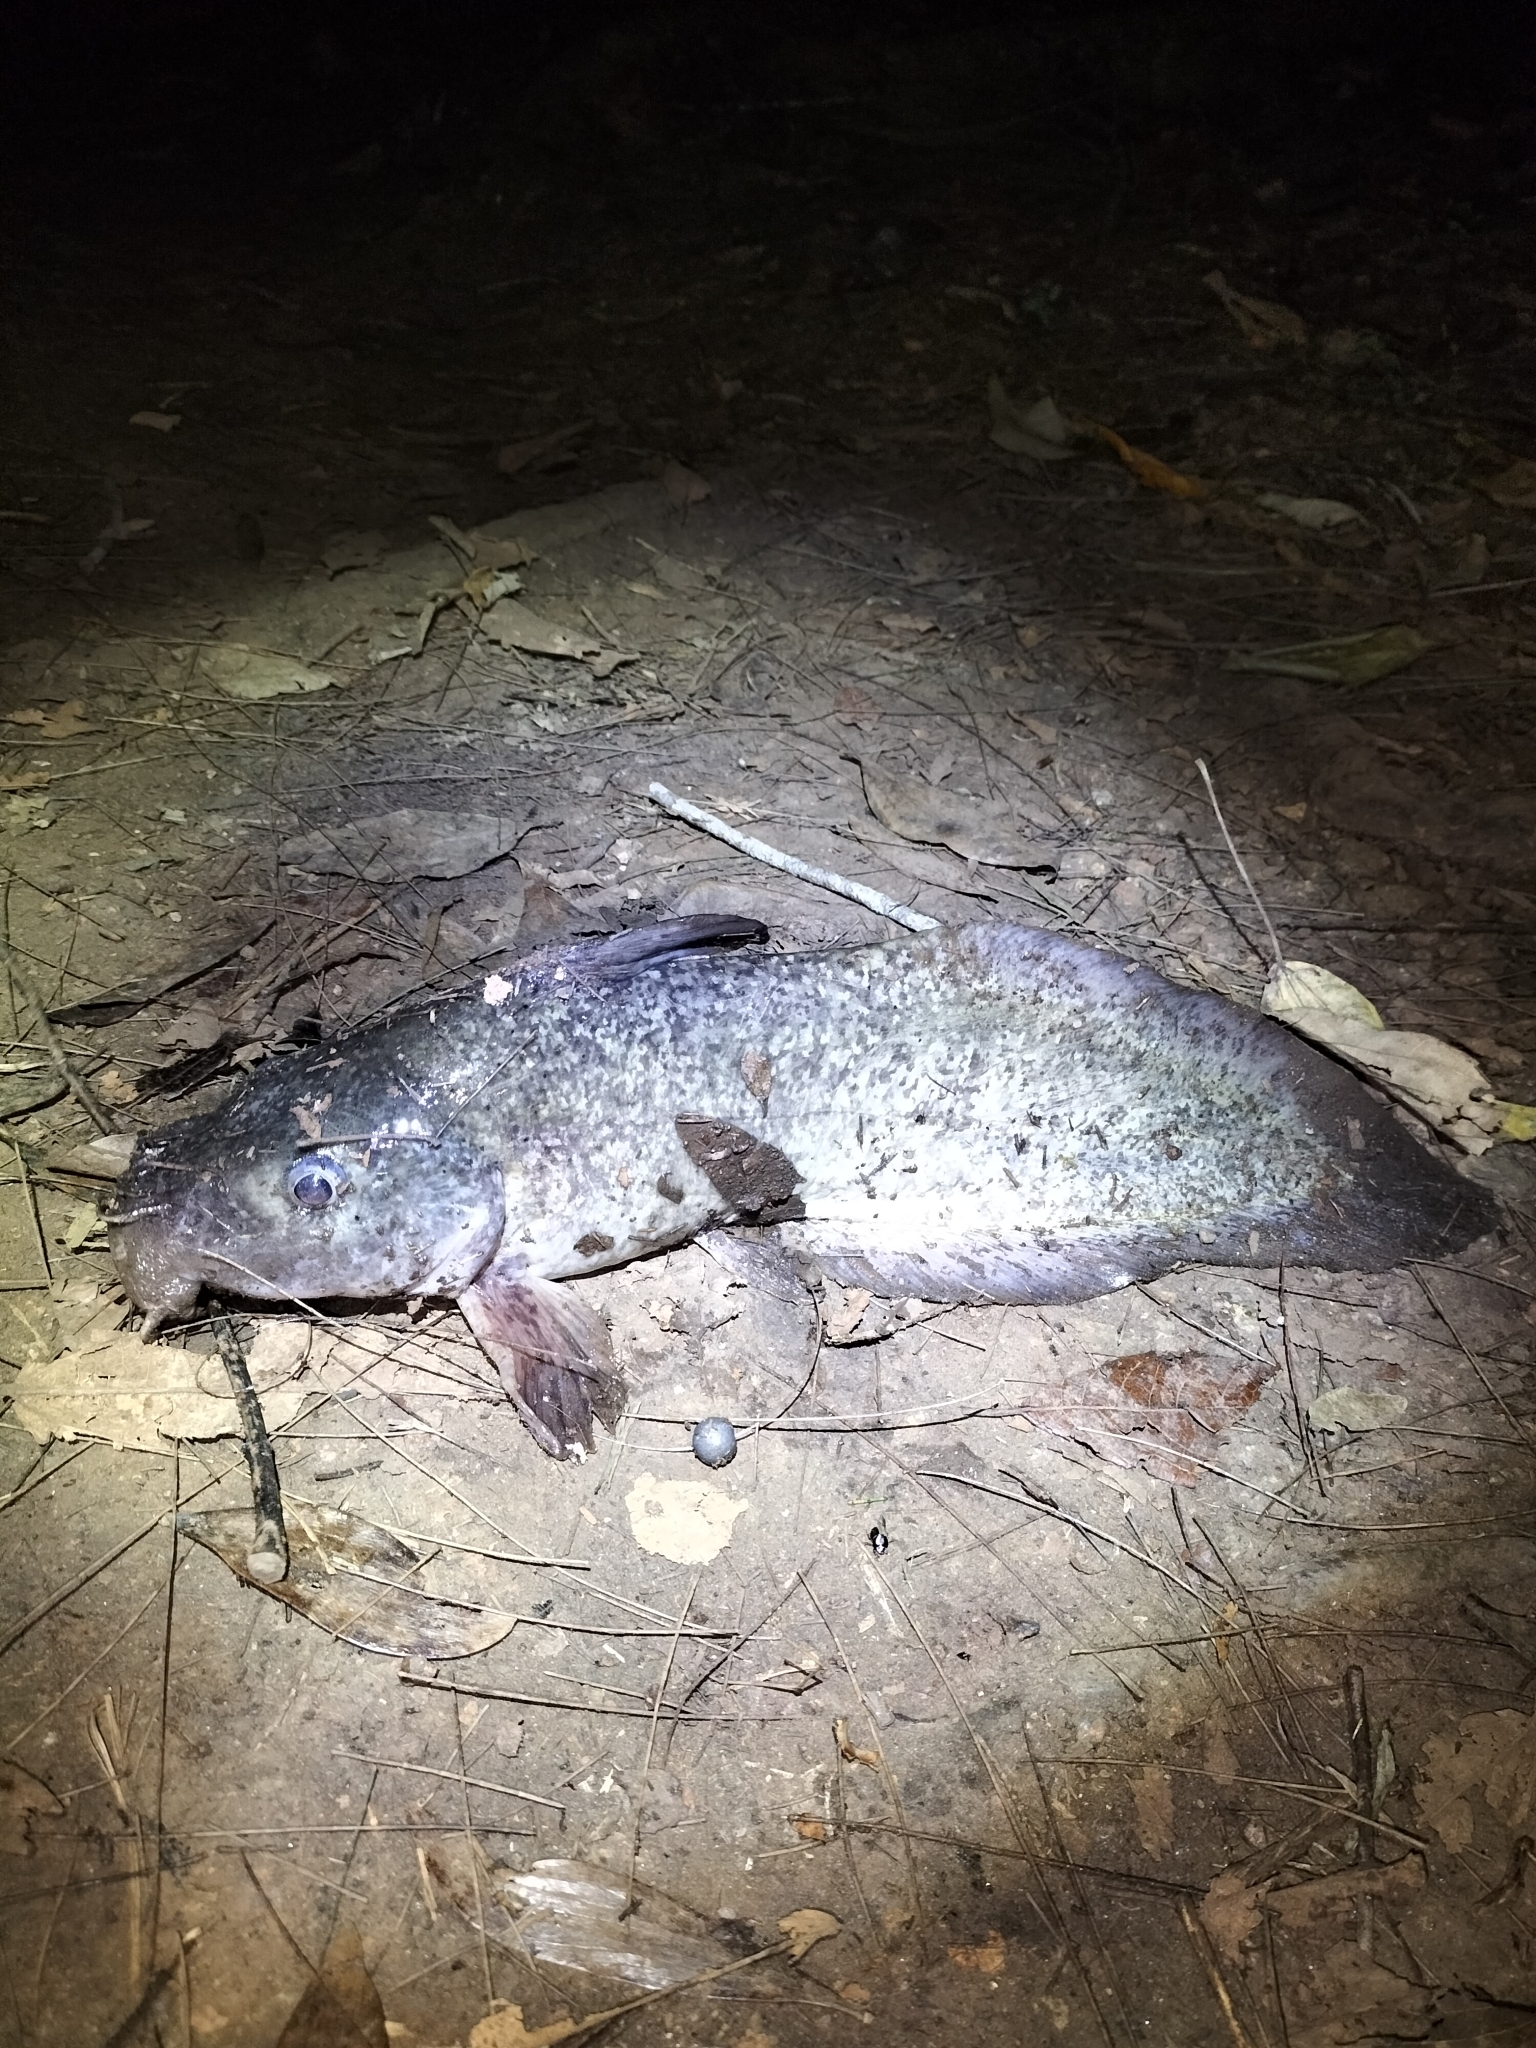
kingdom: Animalia
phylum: Chordata
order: Siluriformes
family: Plotosidae
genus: Tandanus
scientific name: Tandanus tropicanus
